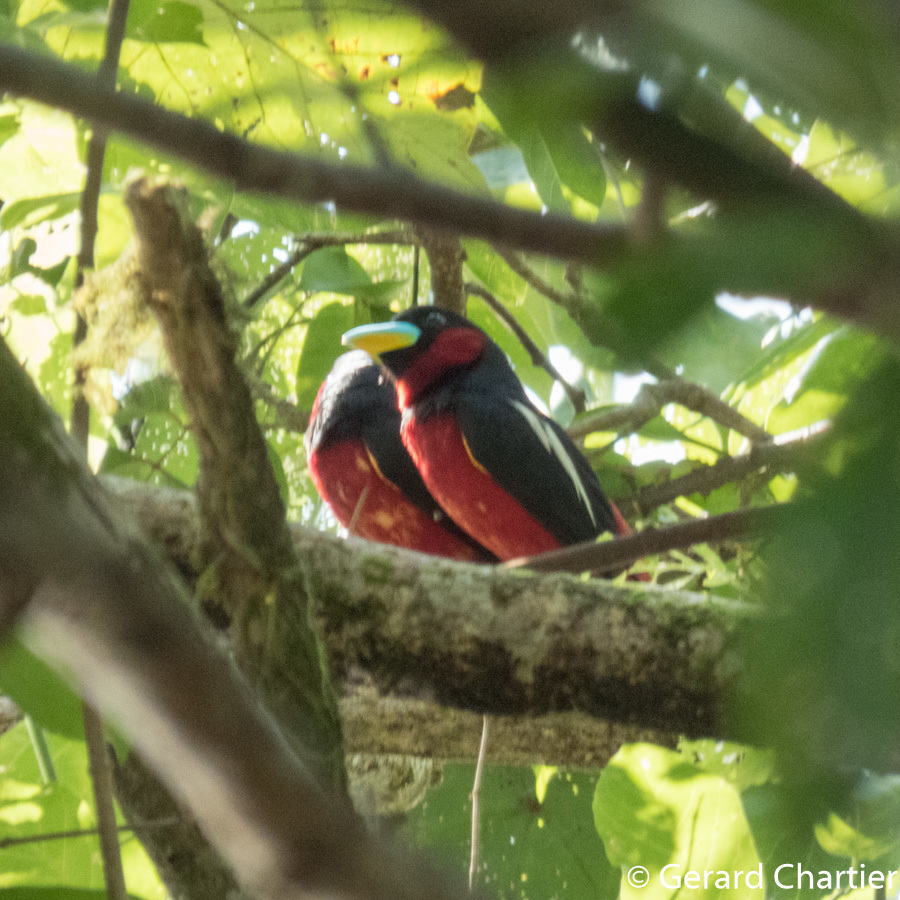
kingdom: Animalia
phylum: Chordata
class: Aves
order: Passeriformes
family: Eurylaimidae
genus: Cymbirhynchus
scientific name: Cymbirhynchus macrorhynchos
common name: Black-and-red broadbill
